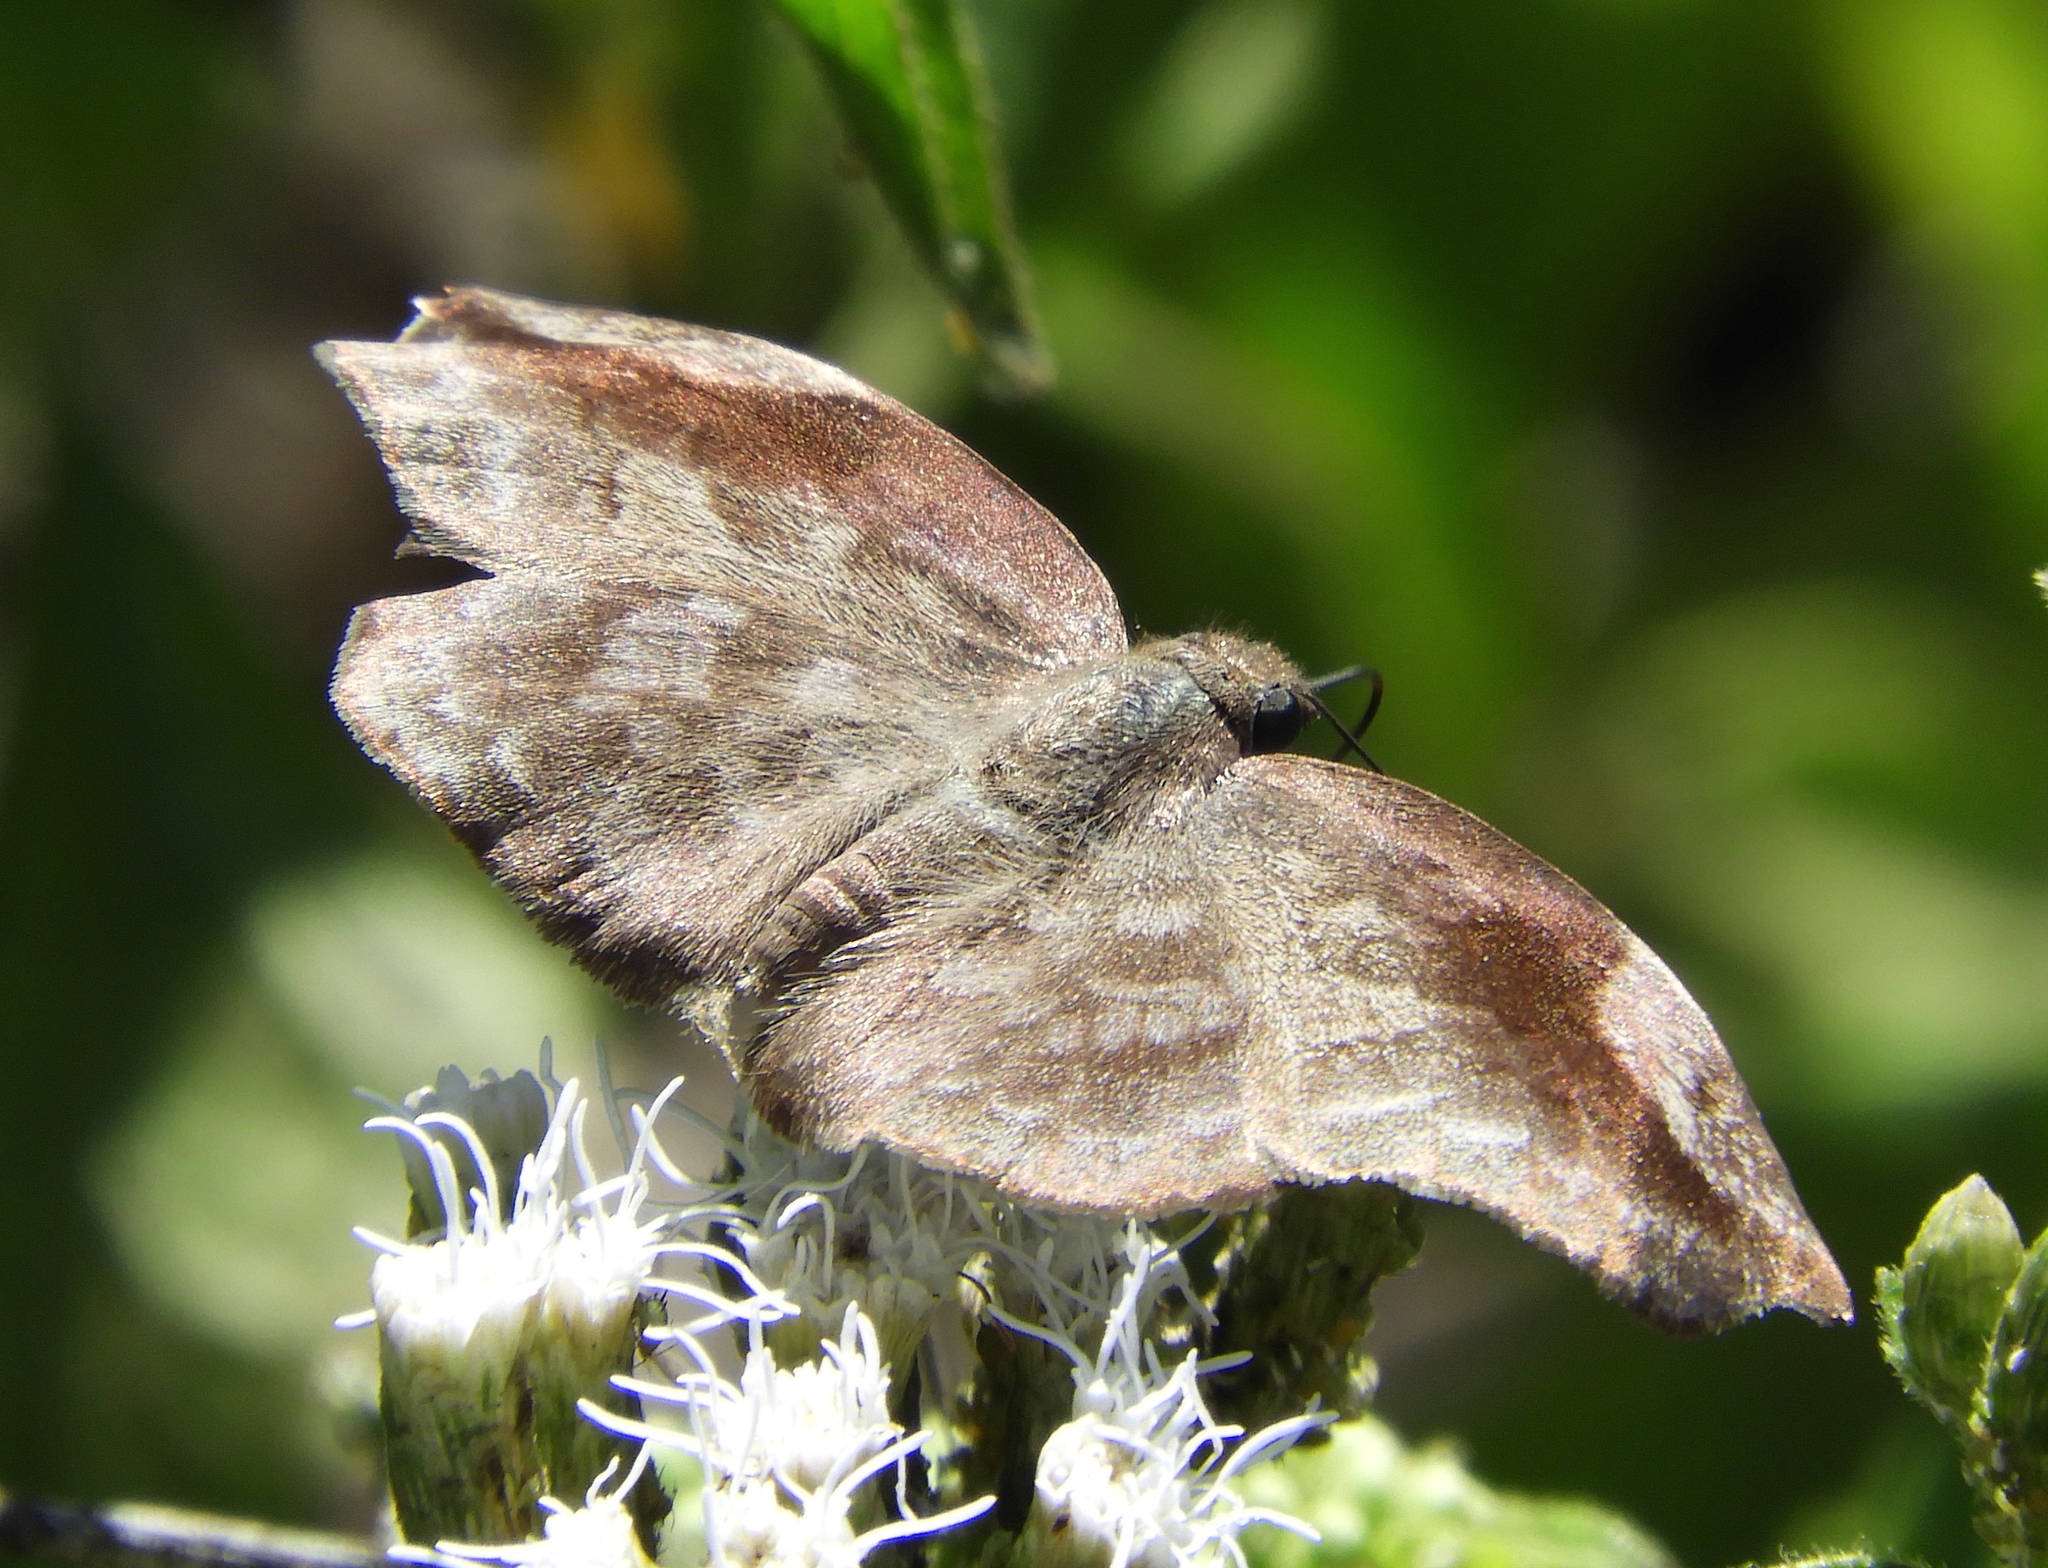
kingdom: Animalia
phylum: Arthropoda
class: Insecta
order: Lepidoptera
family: Hesperiidae
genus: Achlyodes
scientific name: Achlyodes thraso
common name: Sickle-winged skipper
